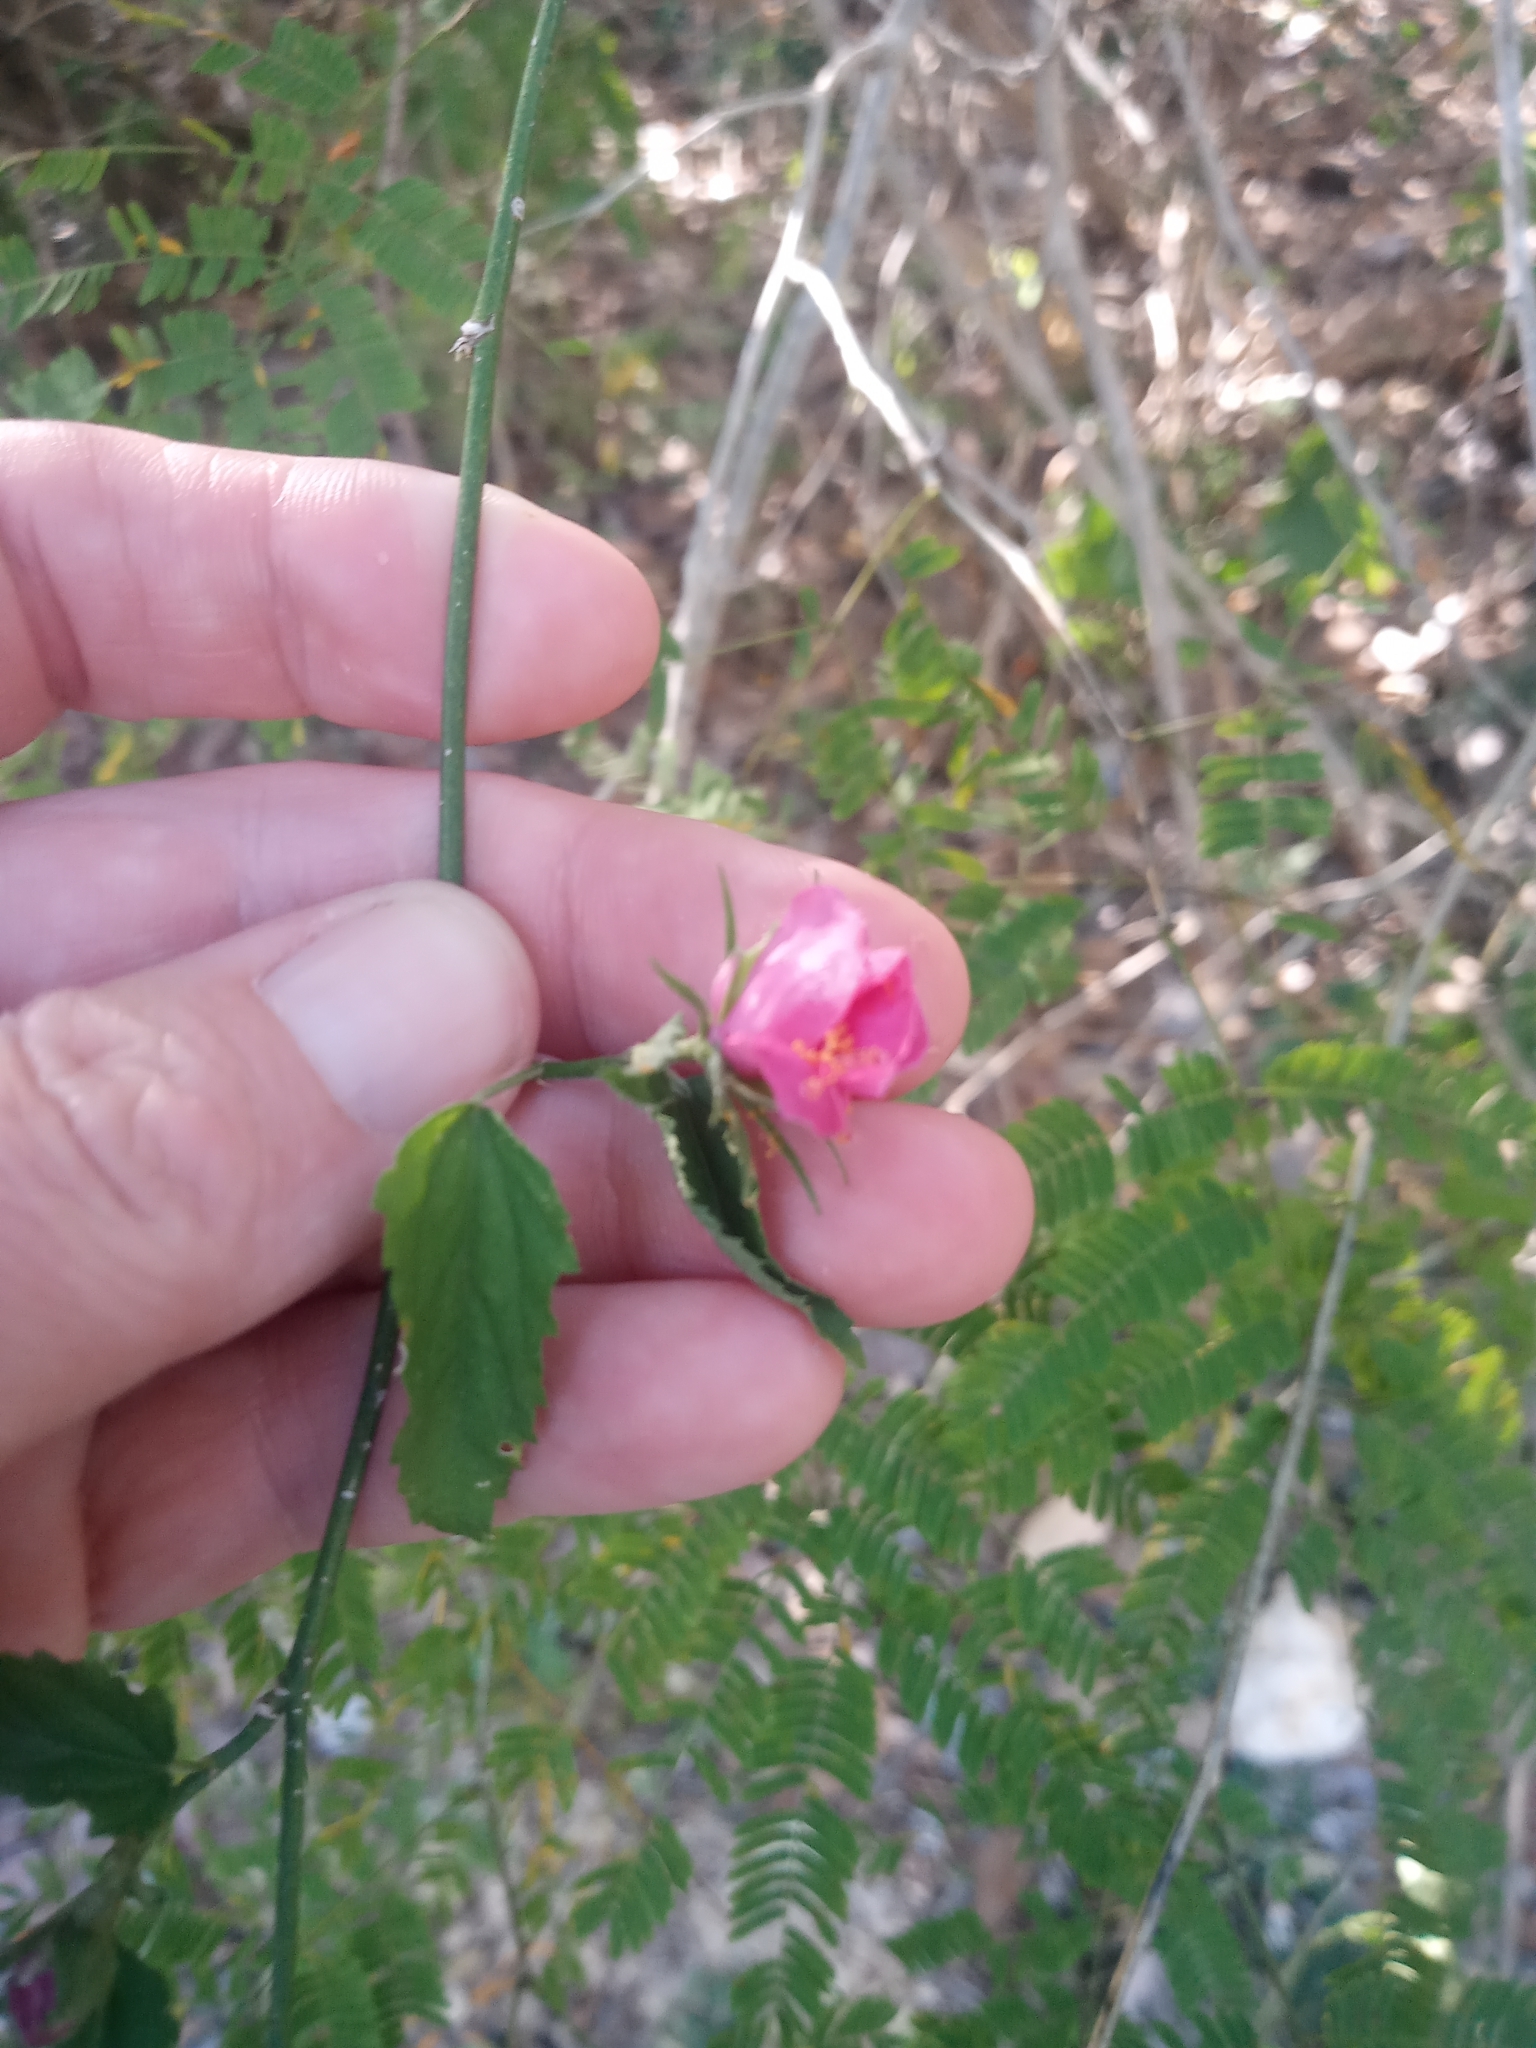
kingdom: Plantae
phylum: Tracheophyta
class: Magnoliopsida
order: Malvales
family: Malvaceae
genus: Hibiscus
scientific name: Hibiscus phoeniceus
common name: Brazilian rosemallow
